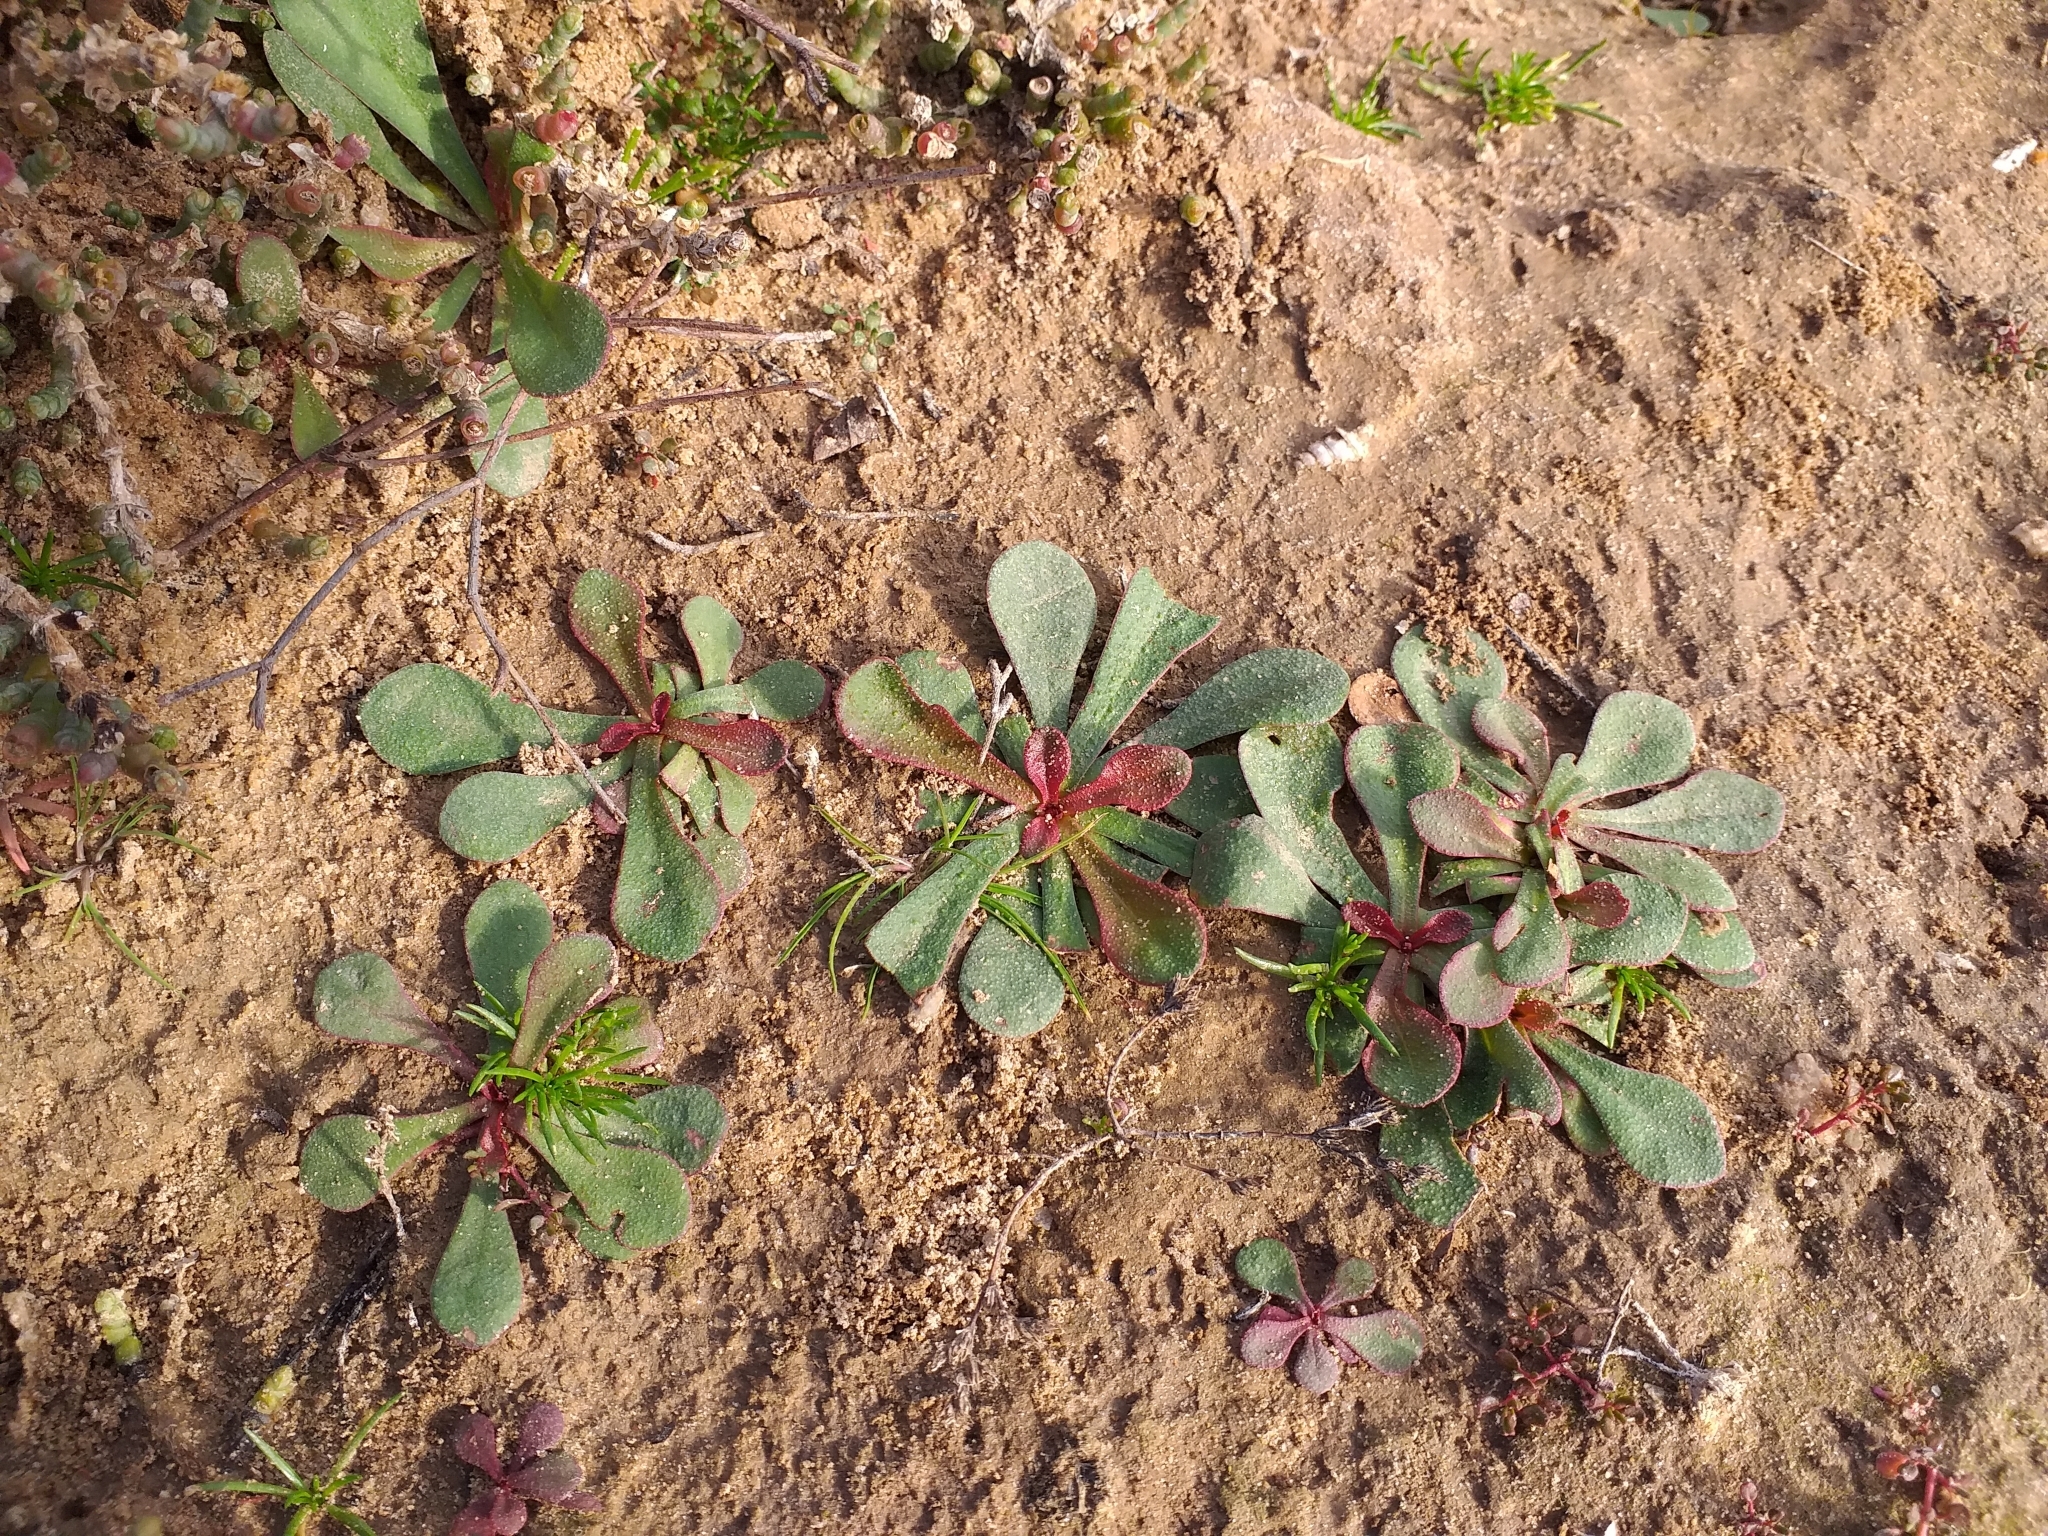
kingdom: Plantae
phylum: Tracheophyta
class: Magnoliopsida
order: Caryophyllales
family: Plumbaginaceae
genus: Limonium
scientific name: Limonium avei
